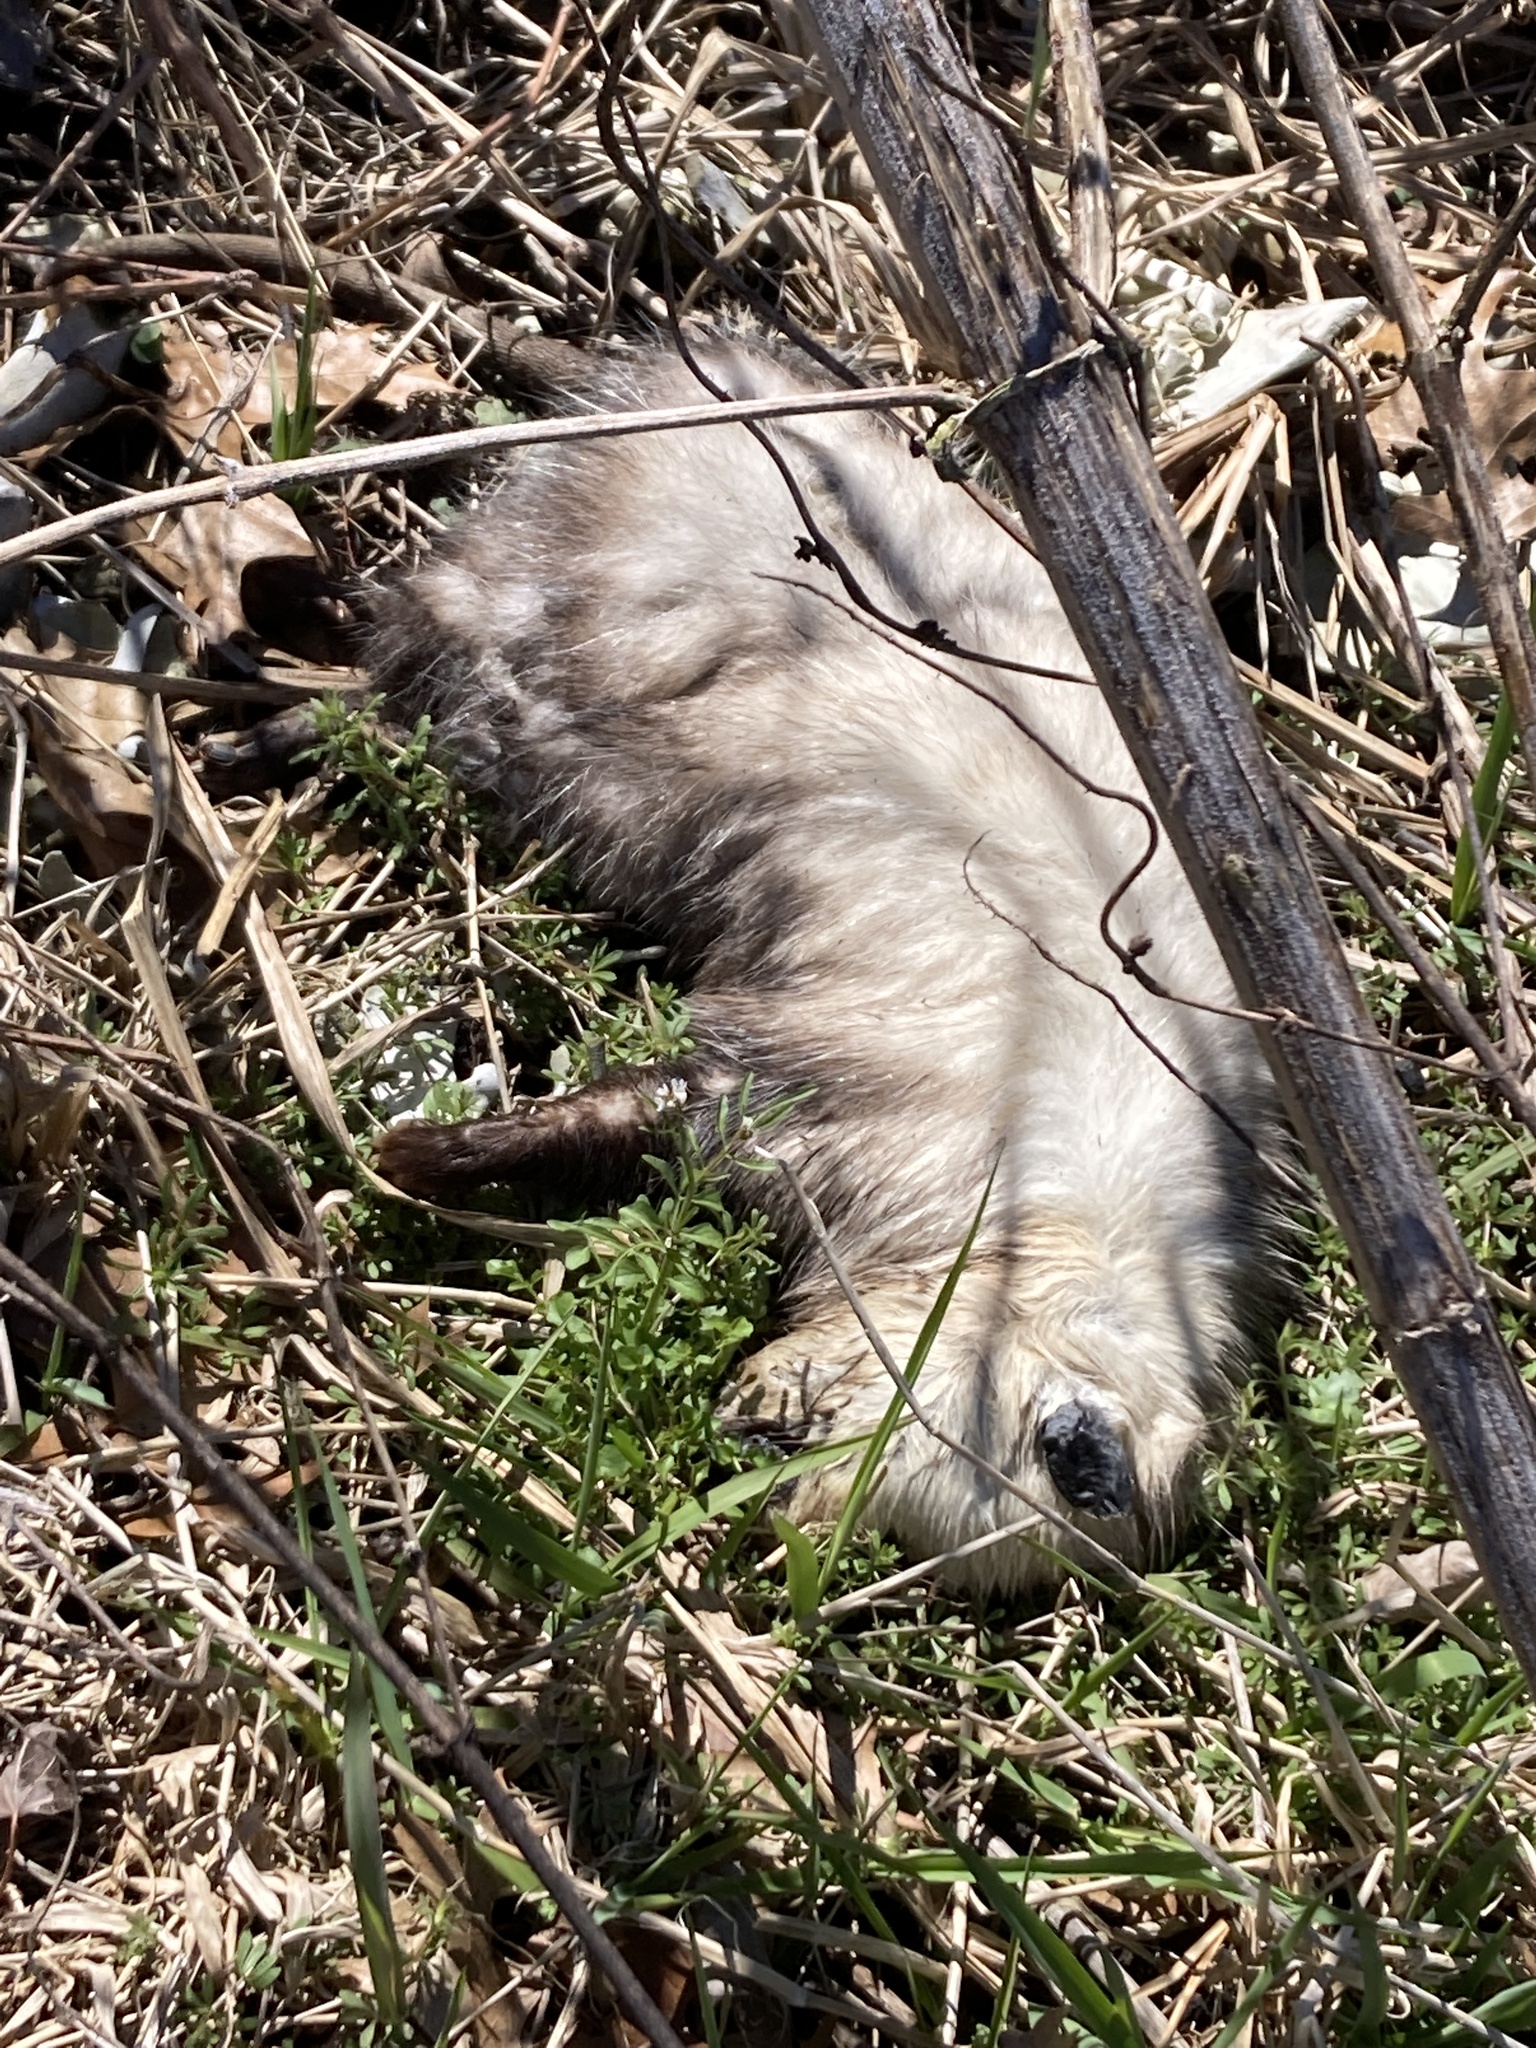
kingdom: Animalia
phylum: Chordata
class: Mammalia
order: Didelphimorphia
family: Didelphidae
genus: Didelphis
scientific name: Didelphis virginiana
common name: Virginia opossum
